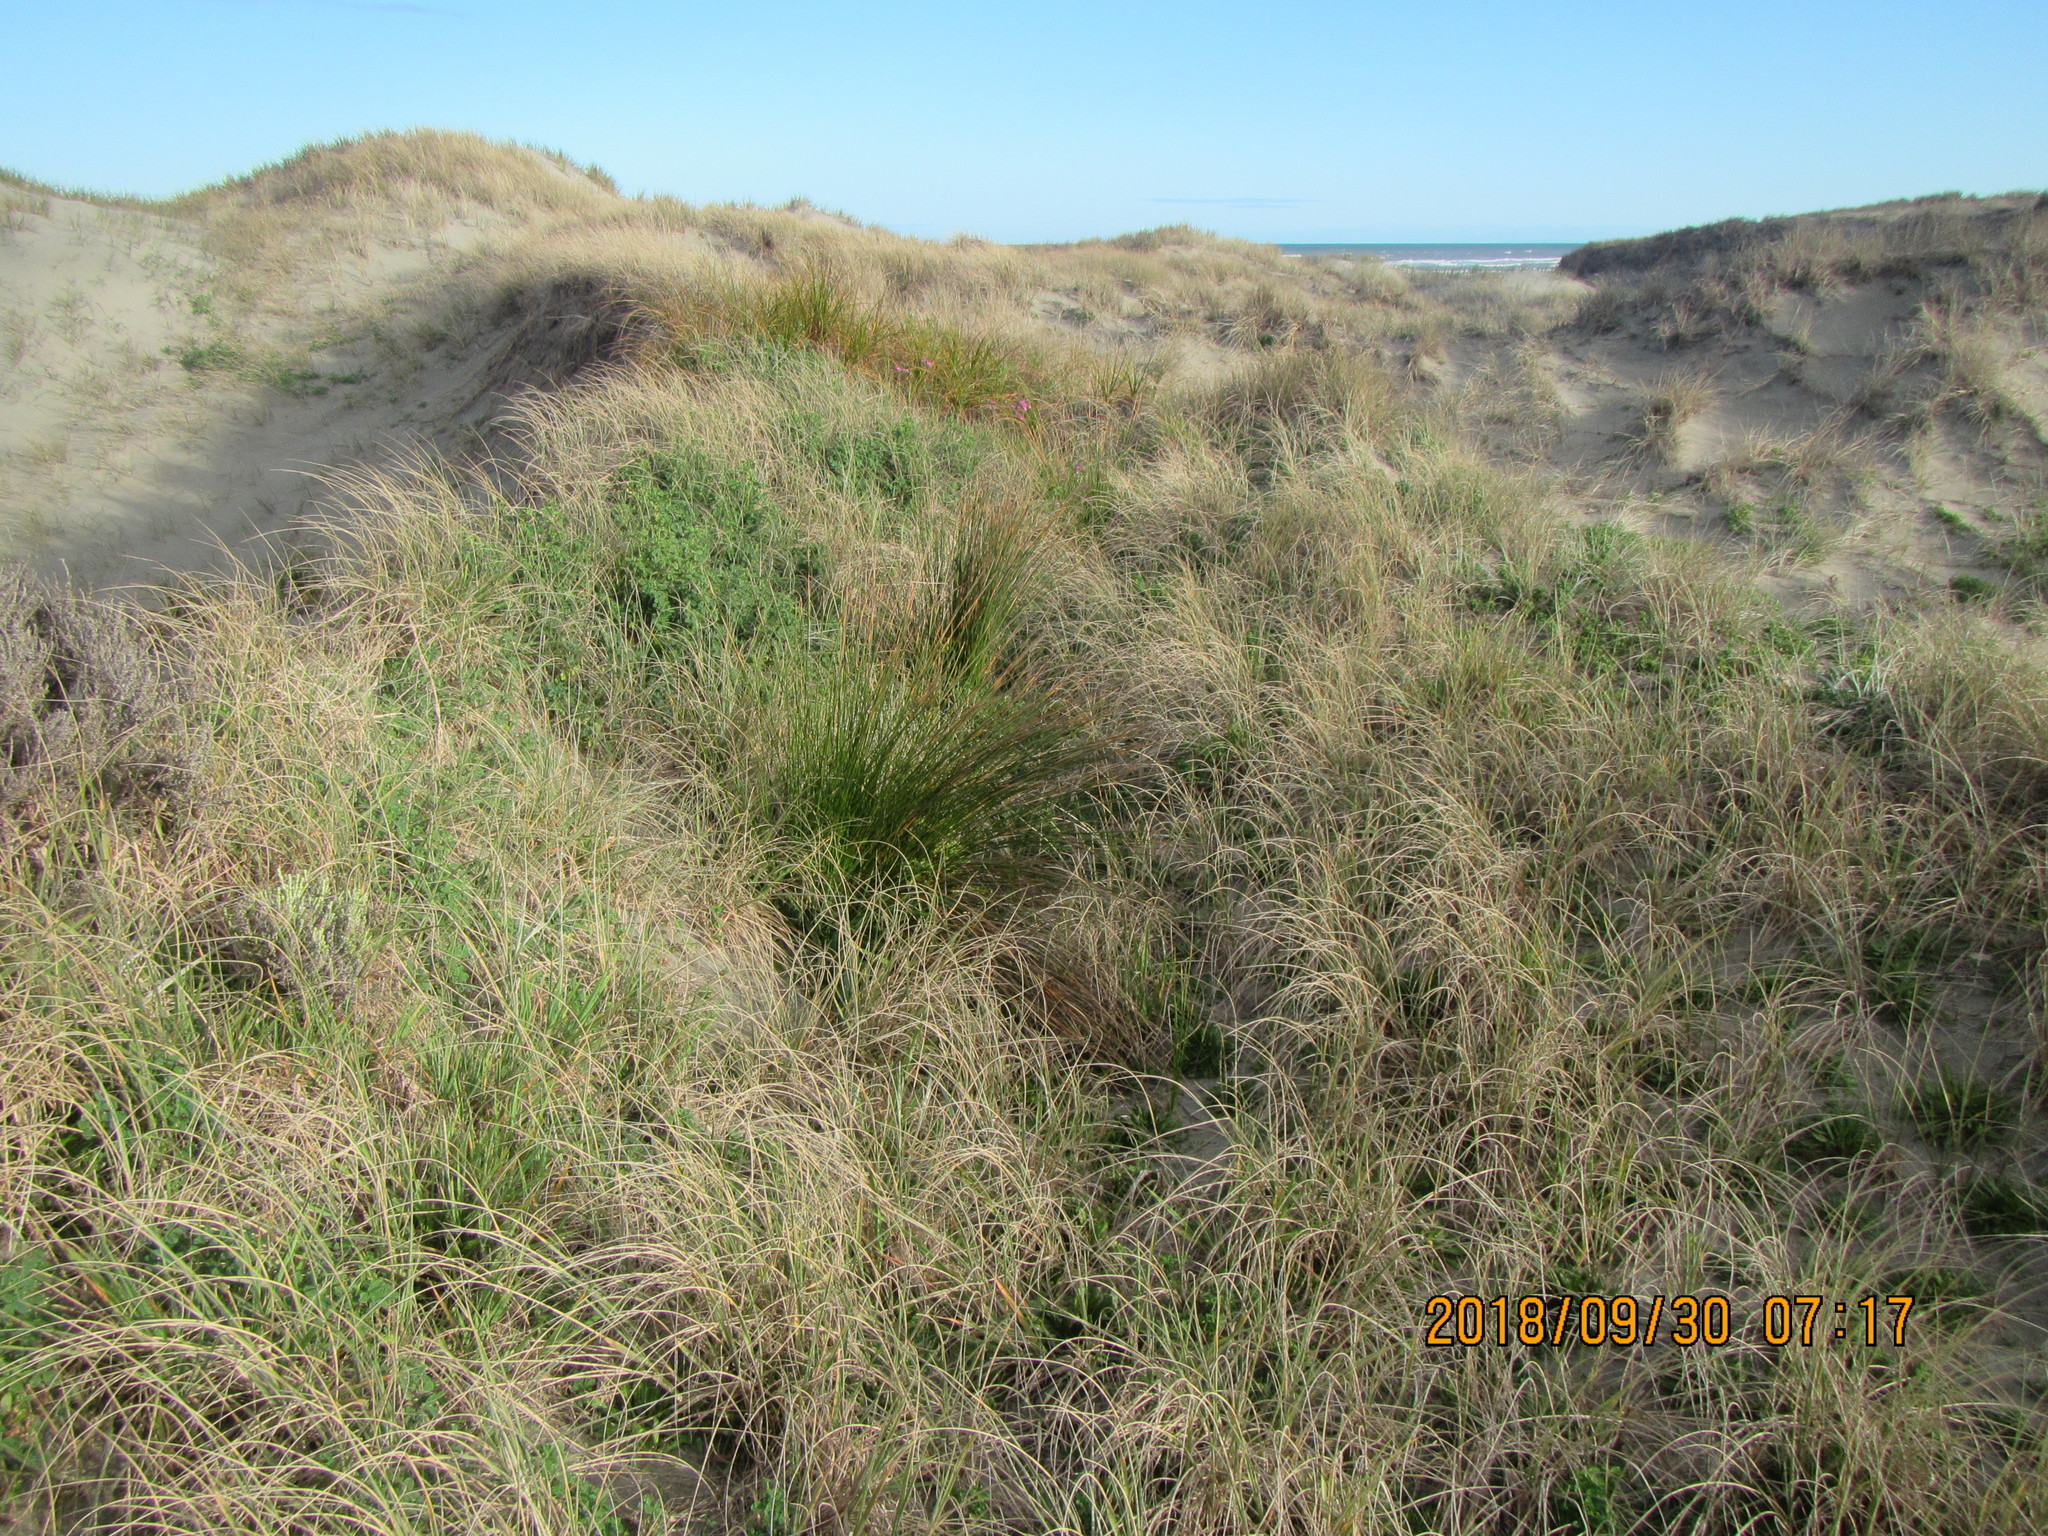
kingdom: Plantae
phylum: Tracheophyta
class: Liliopsida
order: Poales
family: Cyperaceae
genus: Ficinia
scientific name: Ficinia nodosa
